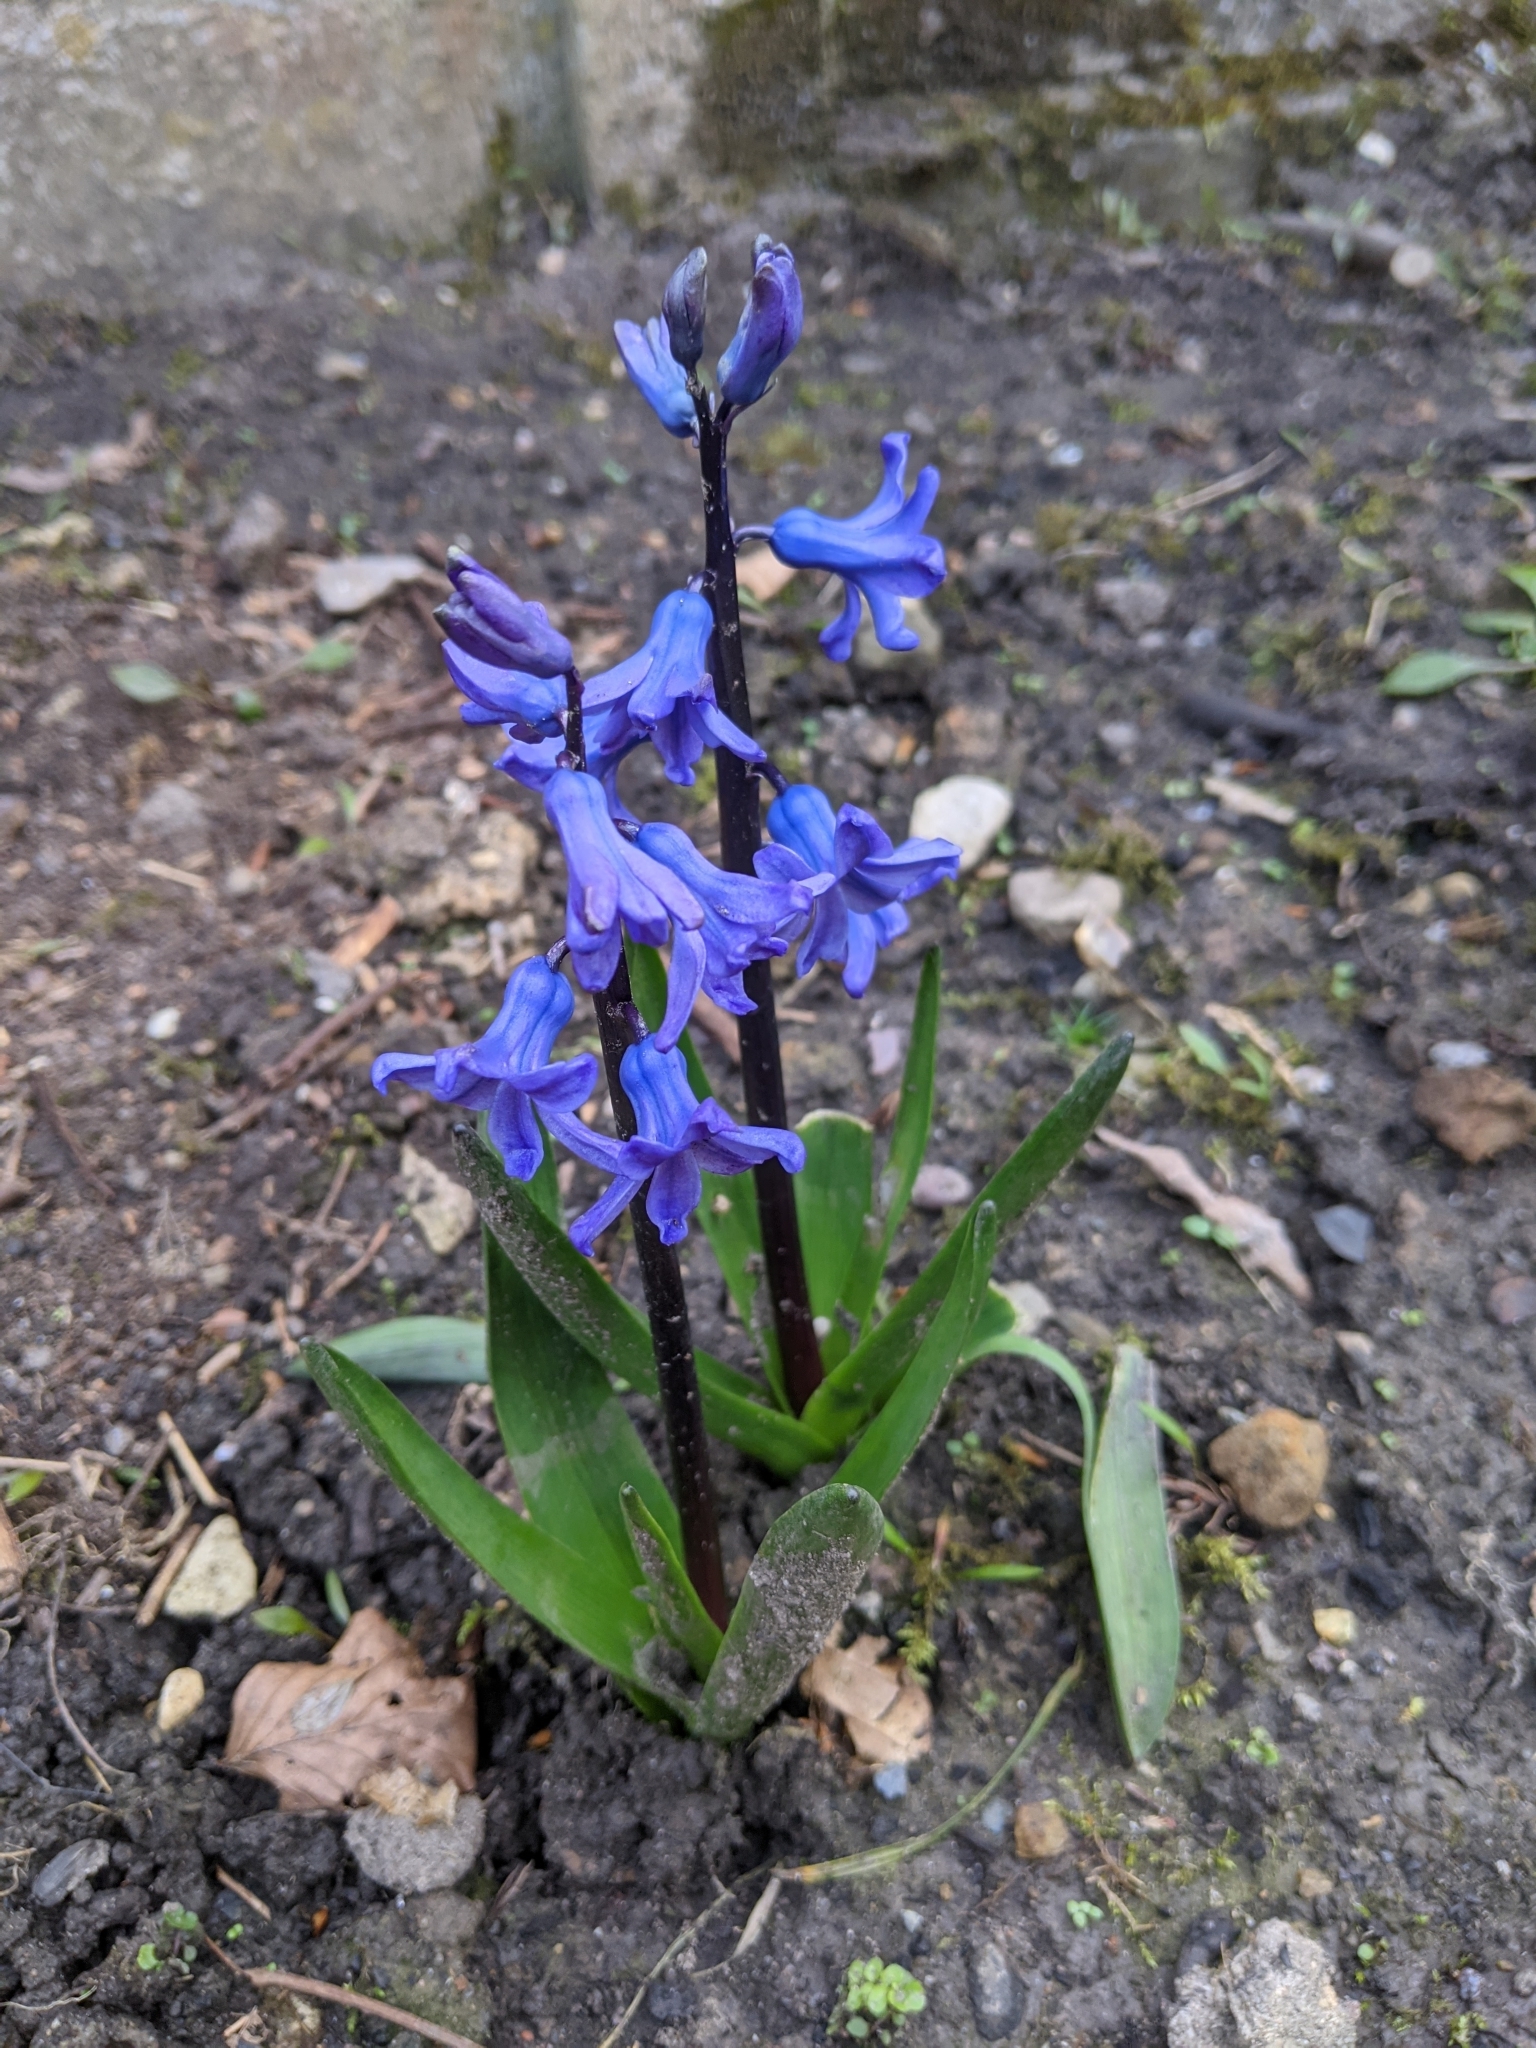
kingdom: Plantae
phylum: Tracheophyta
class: Liliopsida
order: Asparagales
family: Asparagaceae
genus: Hyacinthus
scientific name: Hyacinthus orientalis
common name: Hyacinth
